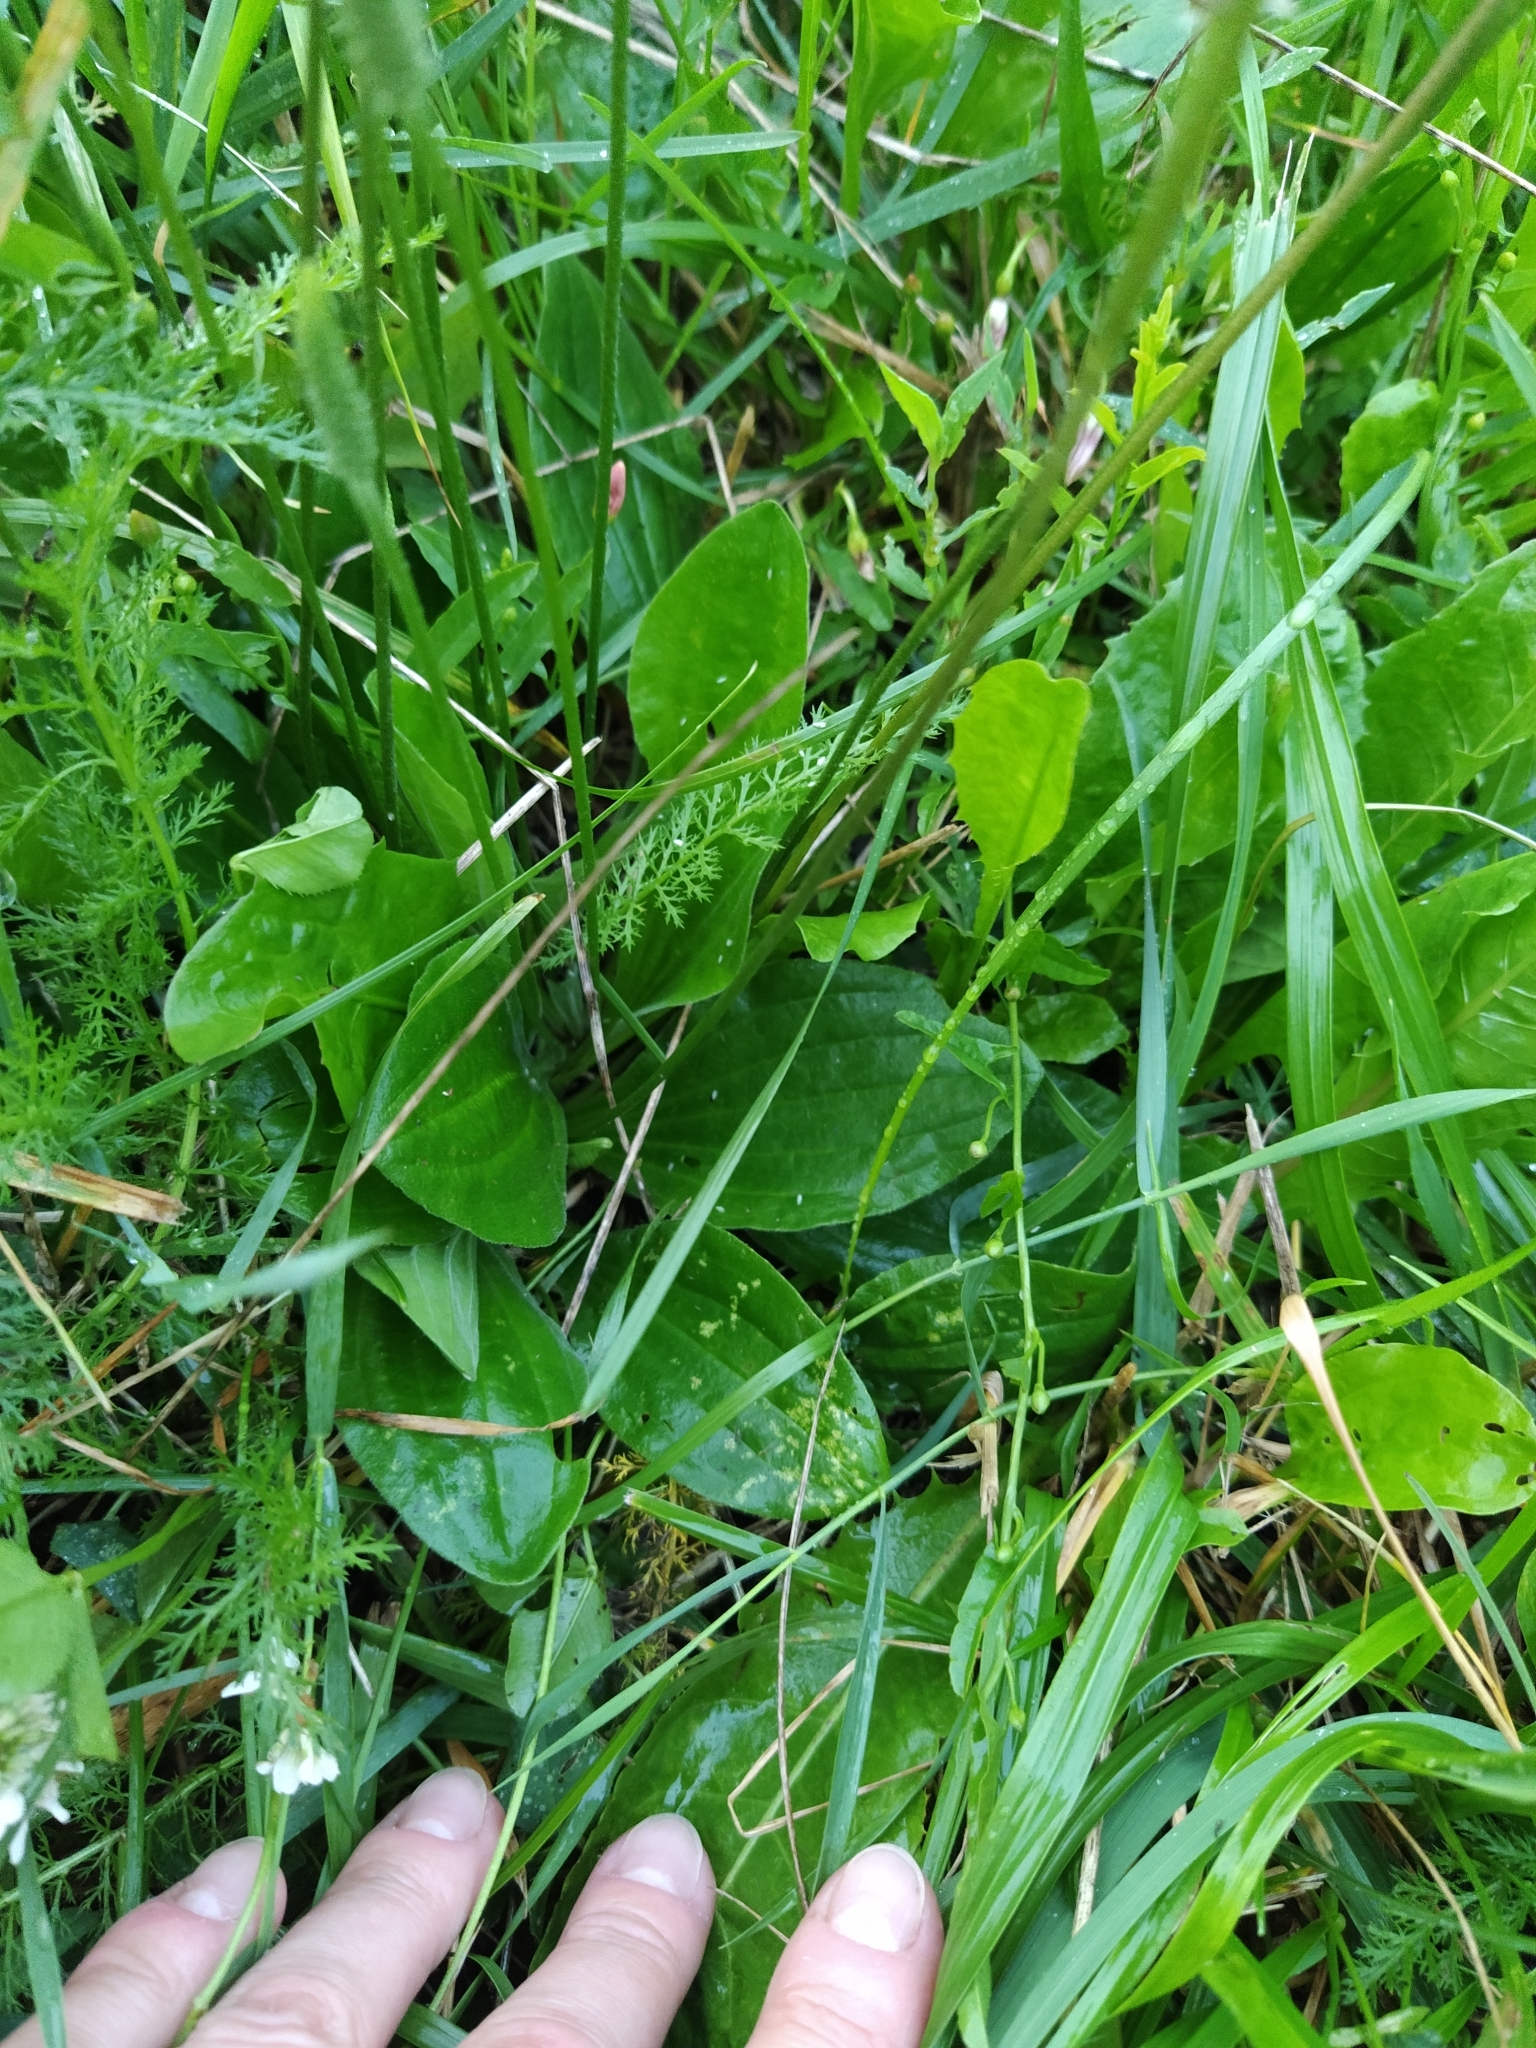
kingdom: Plantae
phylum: Tracheophyta
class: Magnoliopsida
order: Lamiales
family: Plantaginaceae
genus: Plantago
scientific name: Plantago media
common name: Hoary plantain
